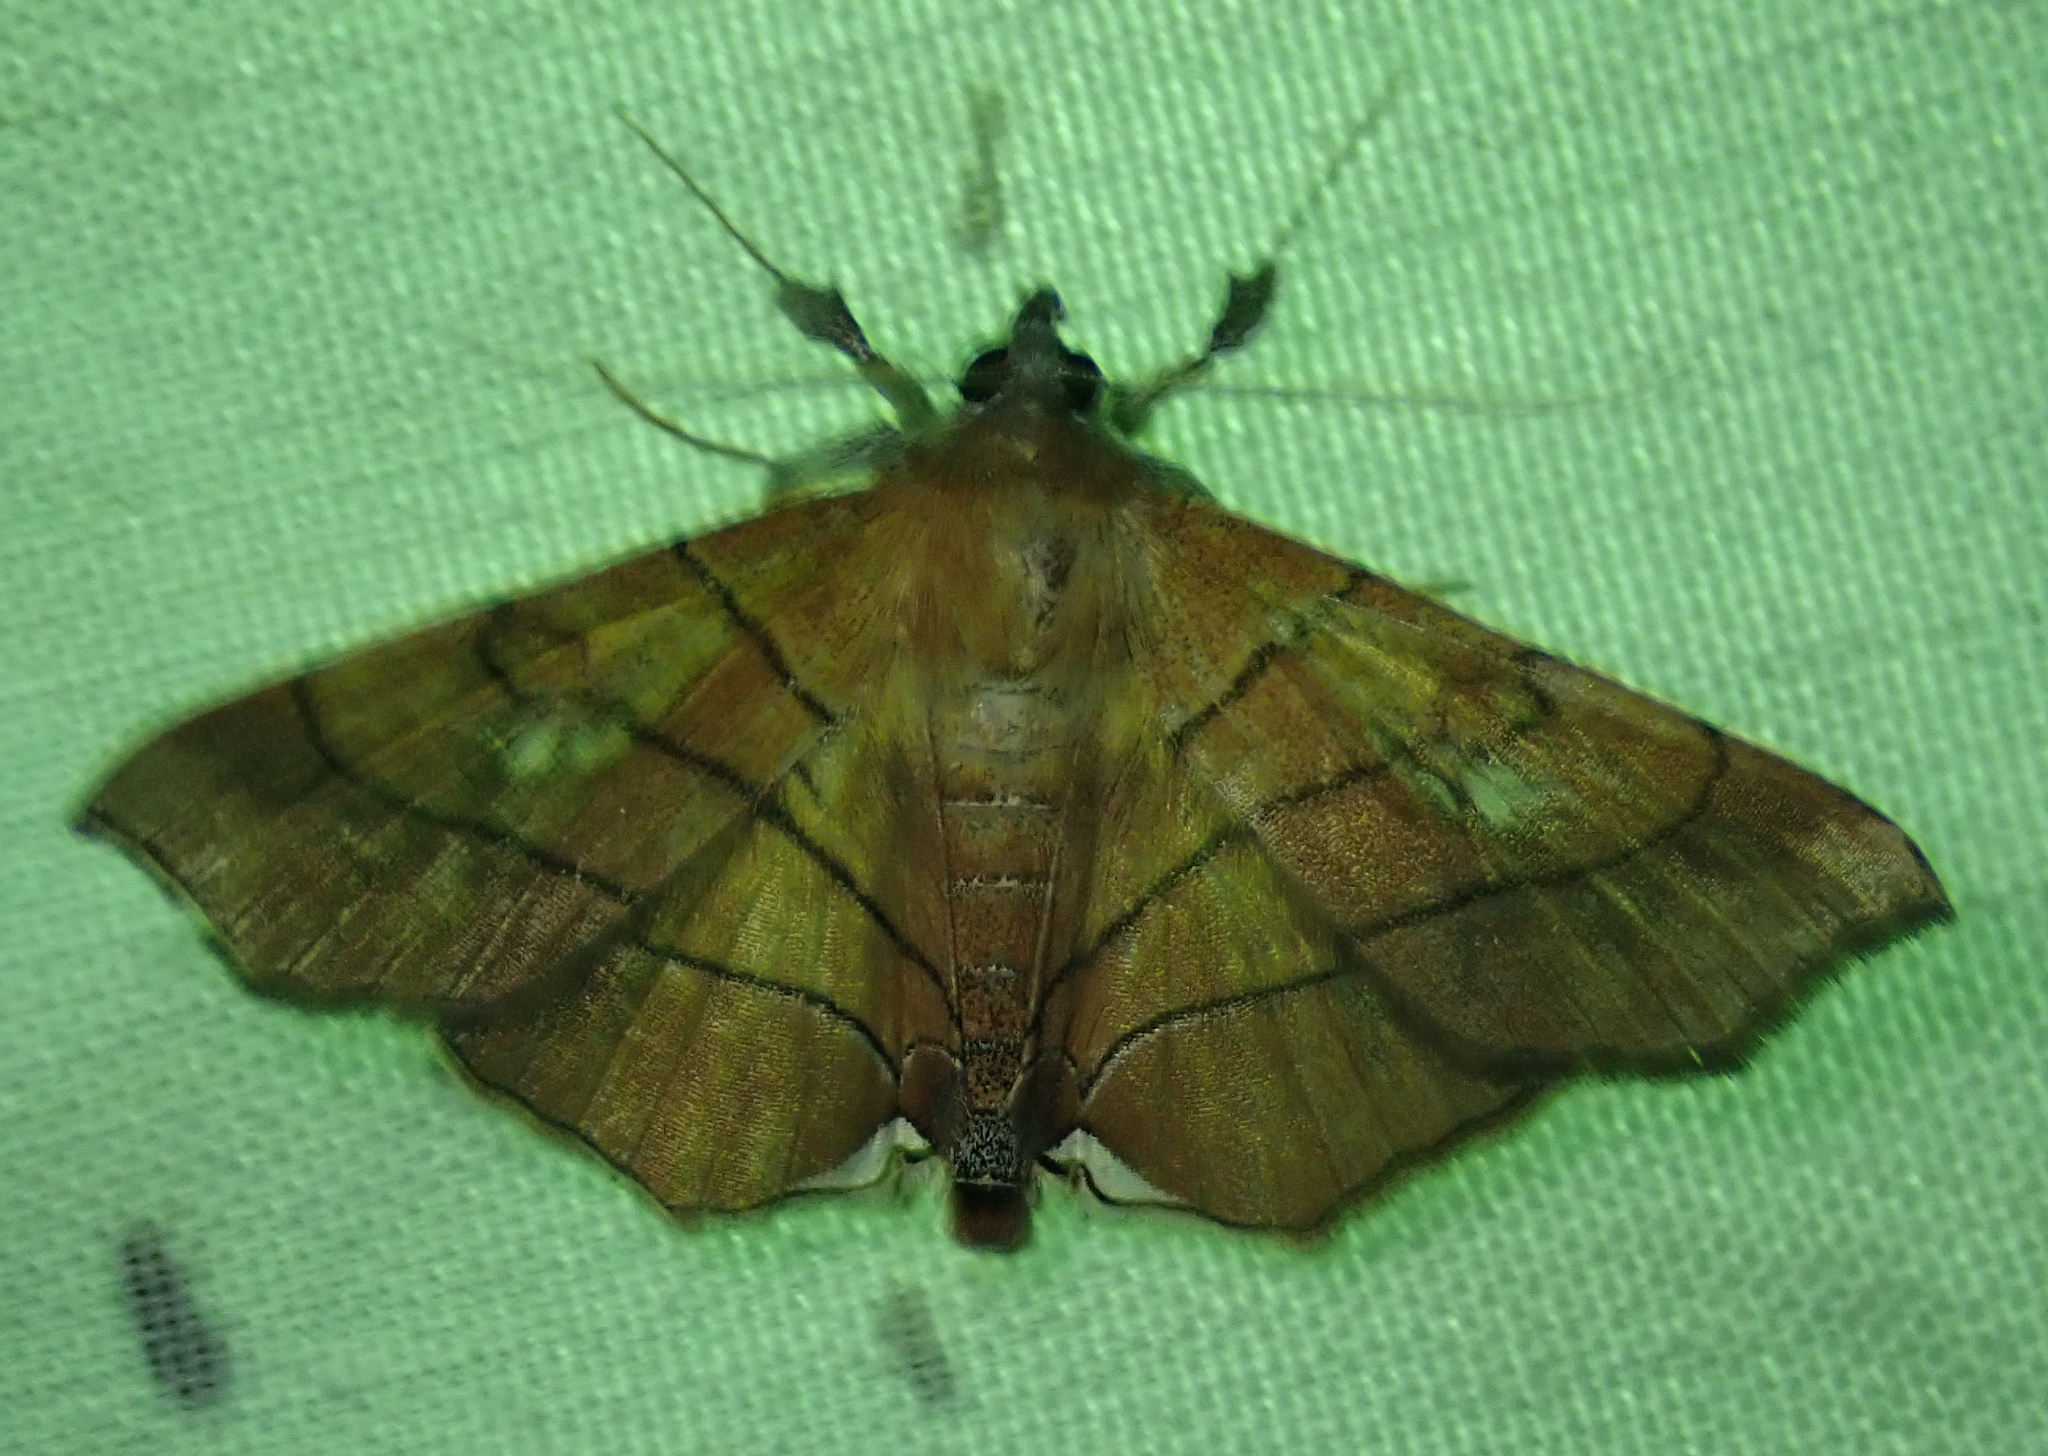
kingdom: Animalia
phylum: Arthropoda
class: Insecta
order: Lepidoptera
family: Erebidae
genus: Gracilodes
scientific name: Gracilodes caffra
